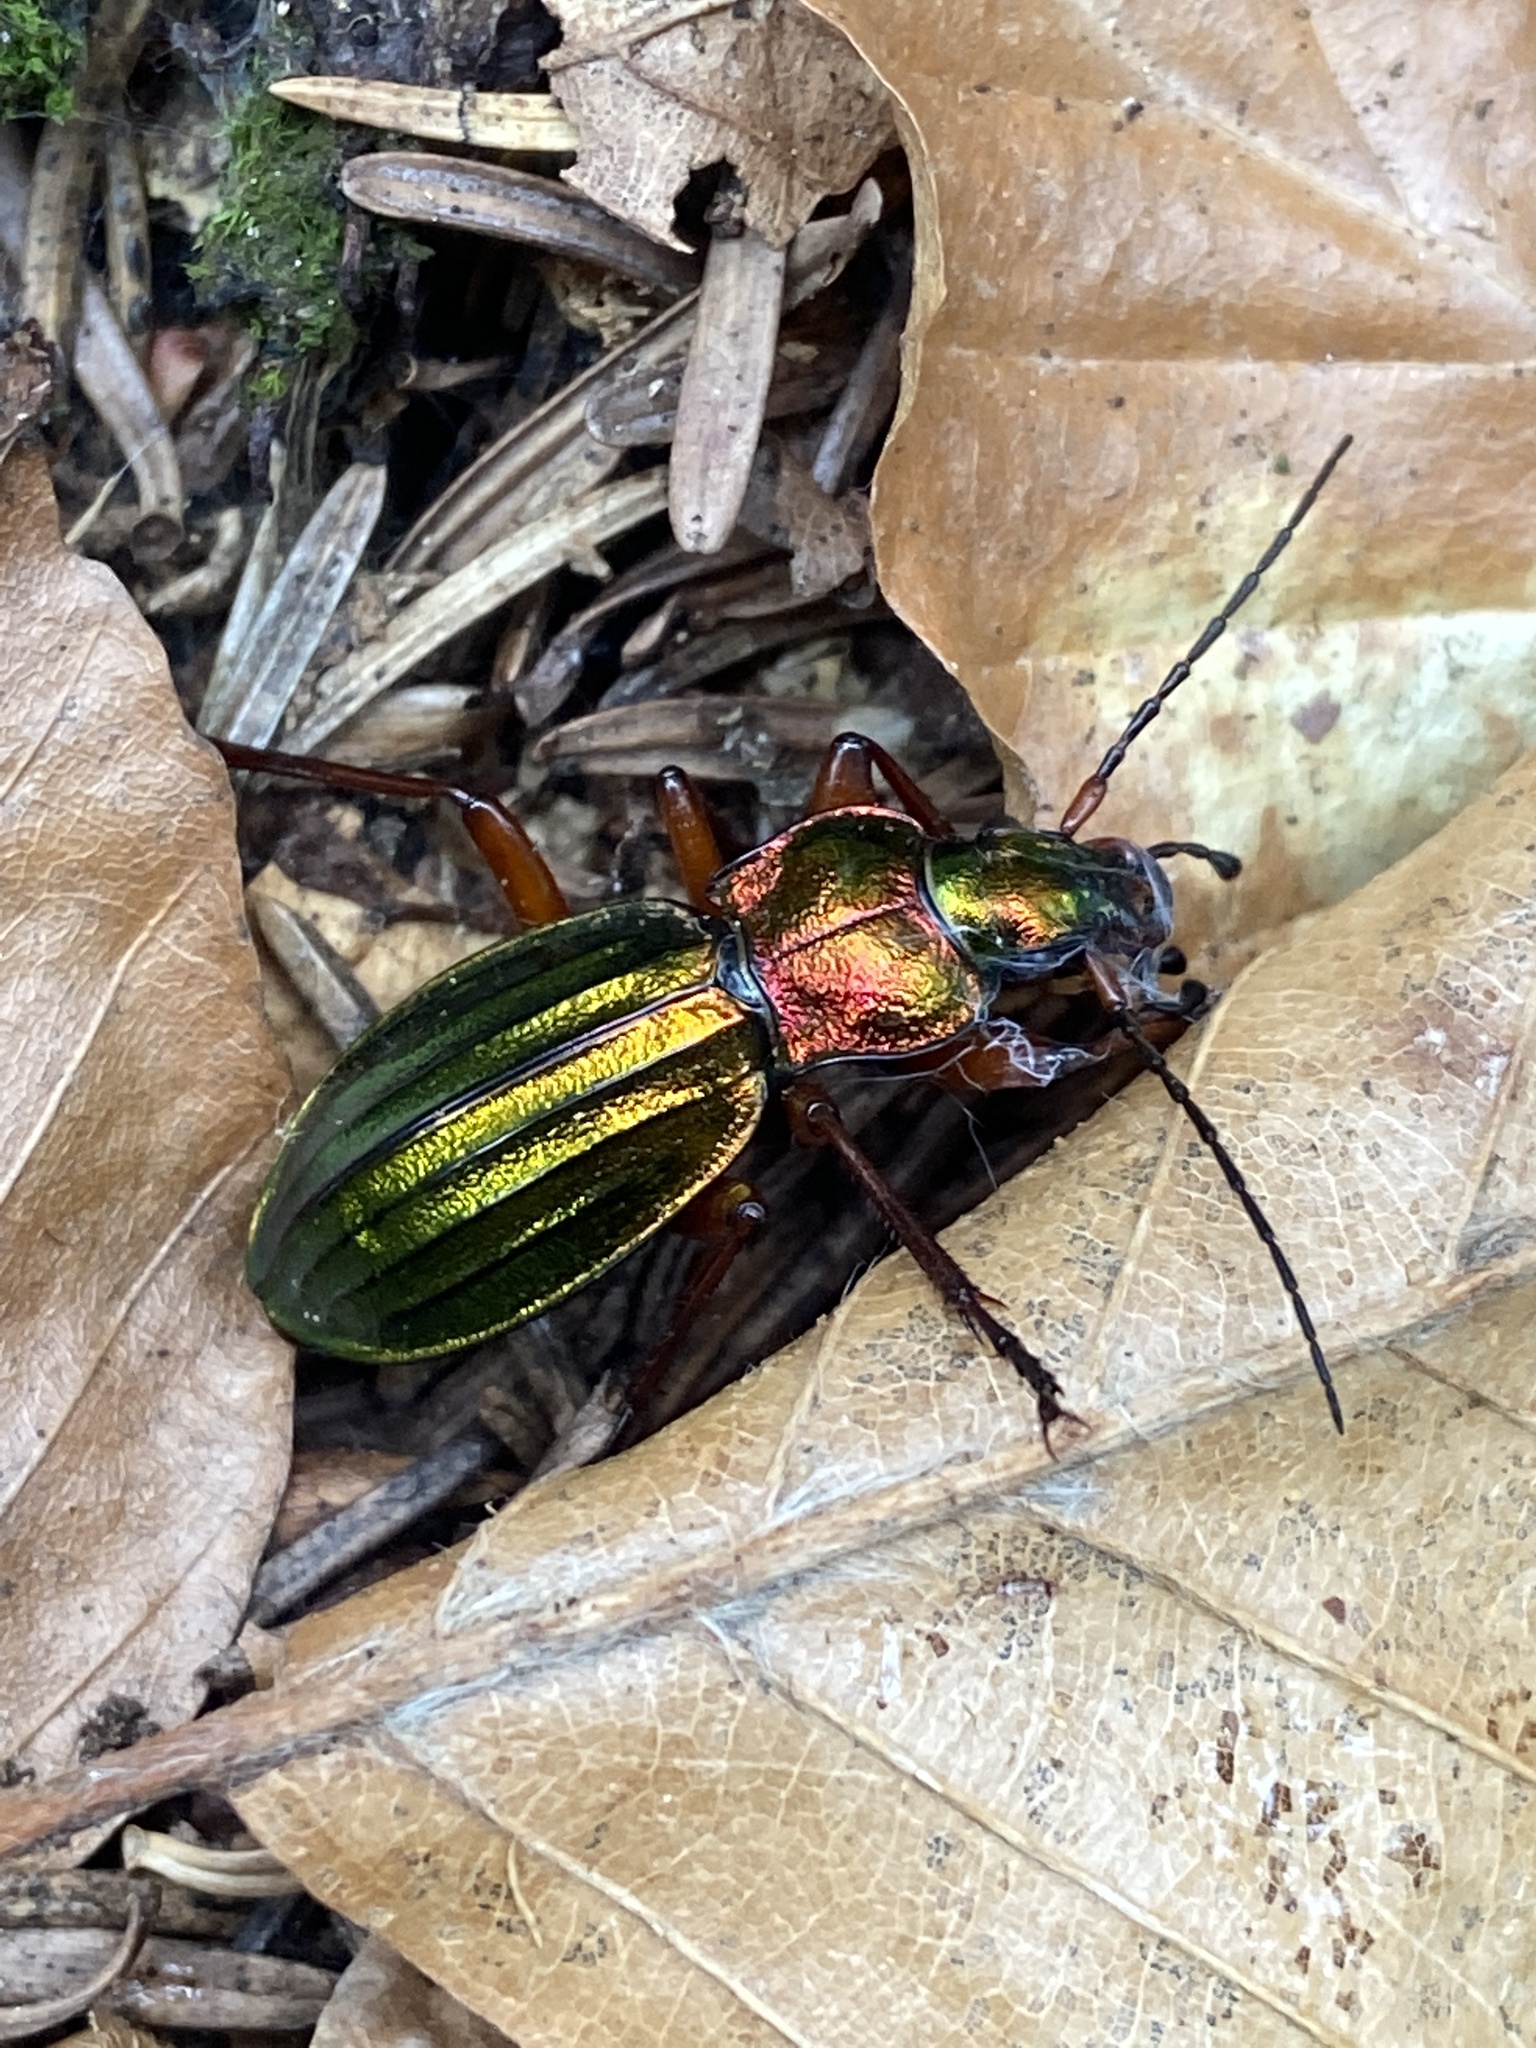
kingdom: Animalia
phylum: Arthropoda
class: Insecta
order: Coleoptera
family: Carabidae
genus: Carabus
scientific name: Carabus auronitens
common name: Carabus auronitens
